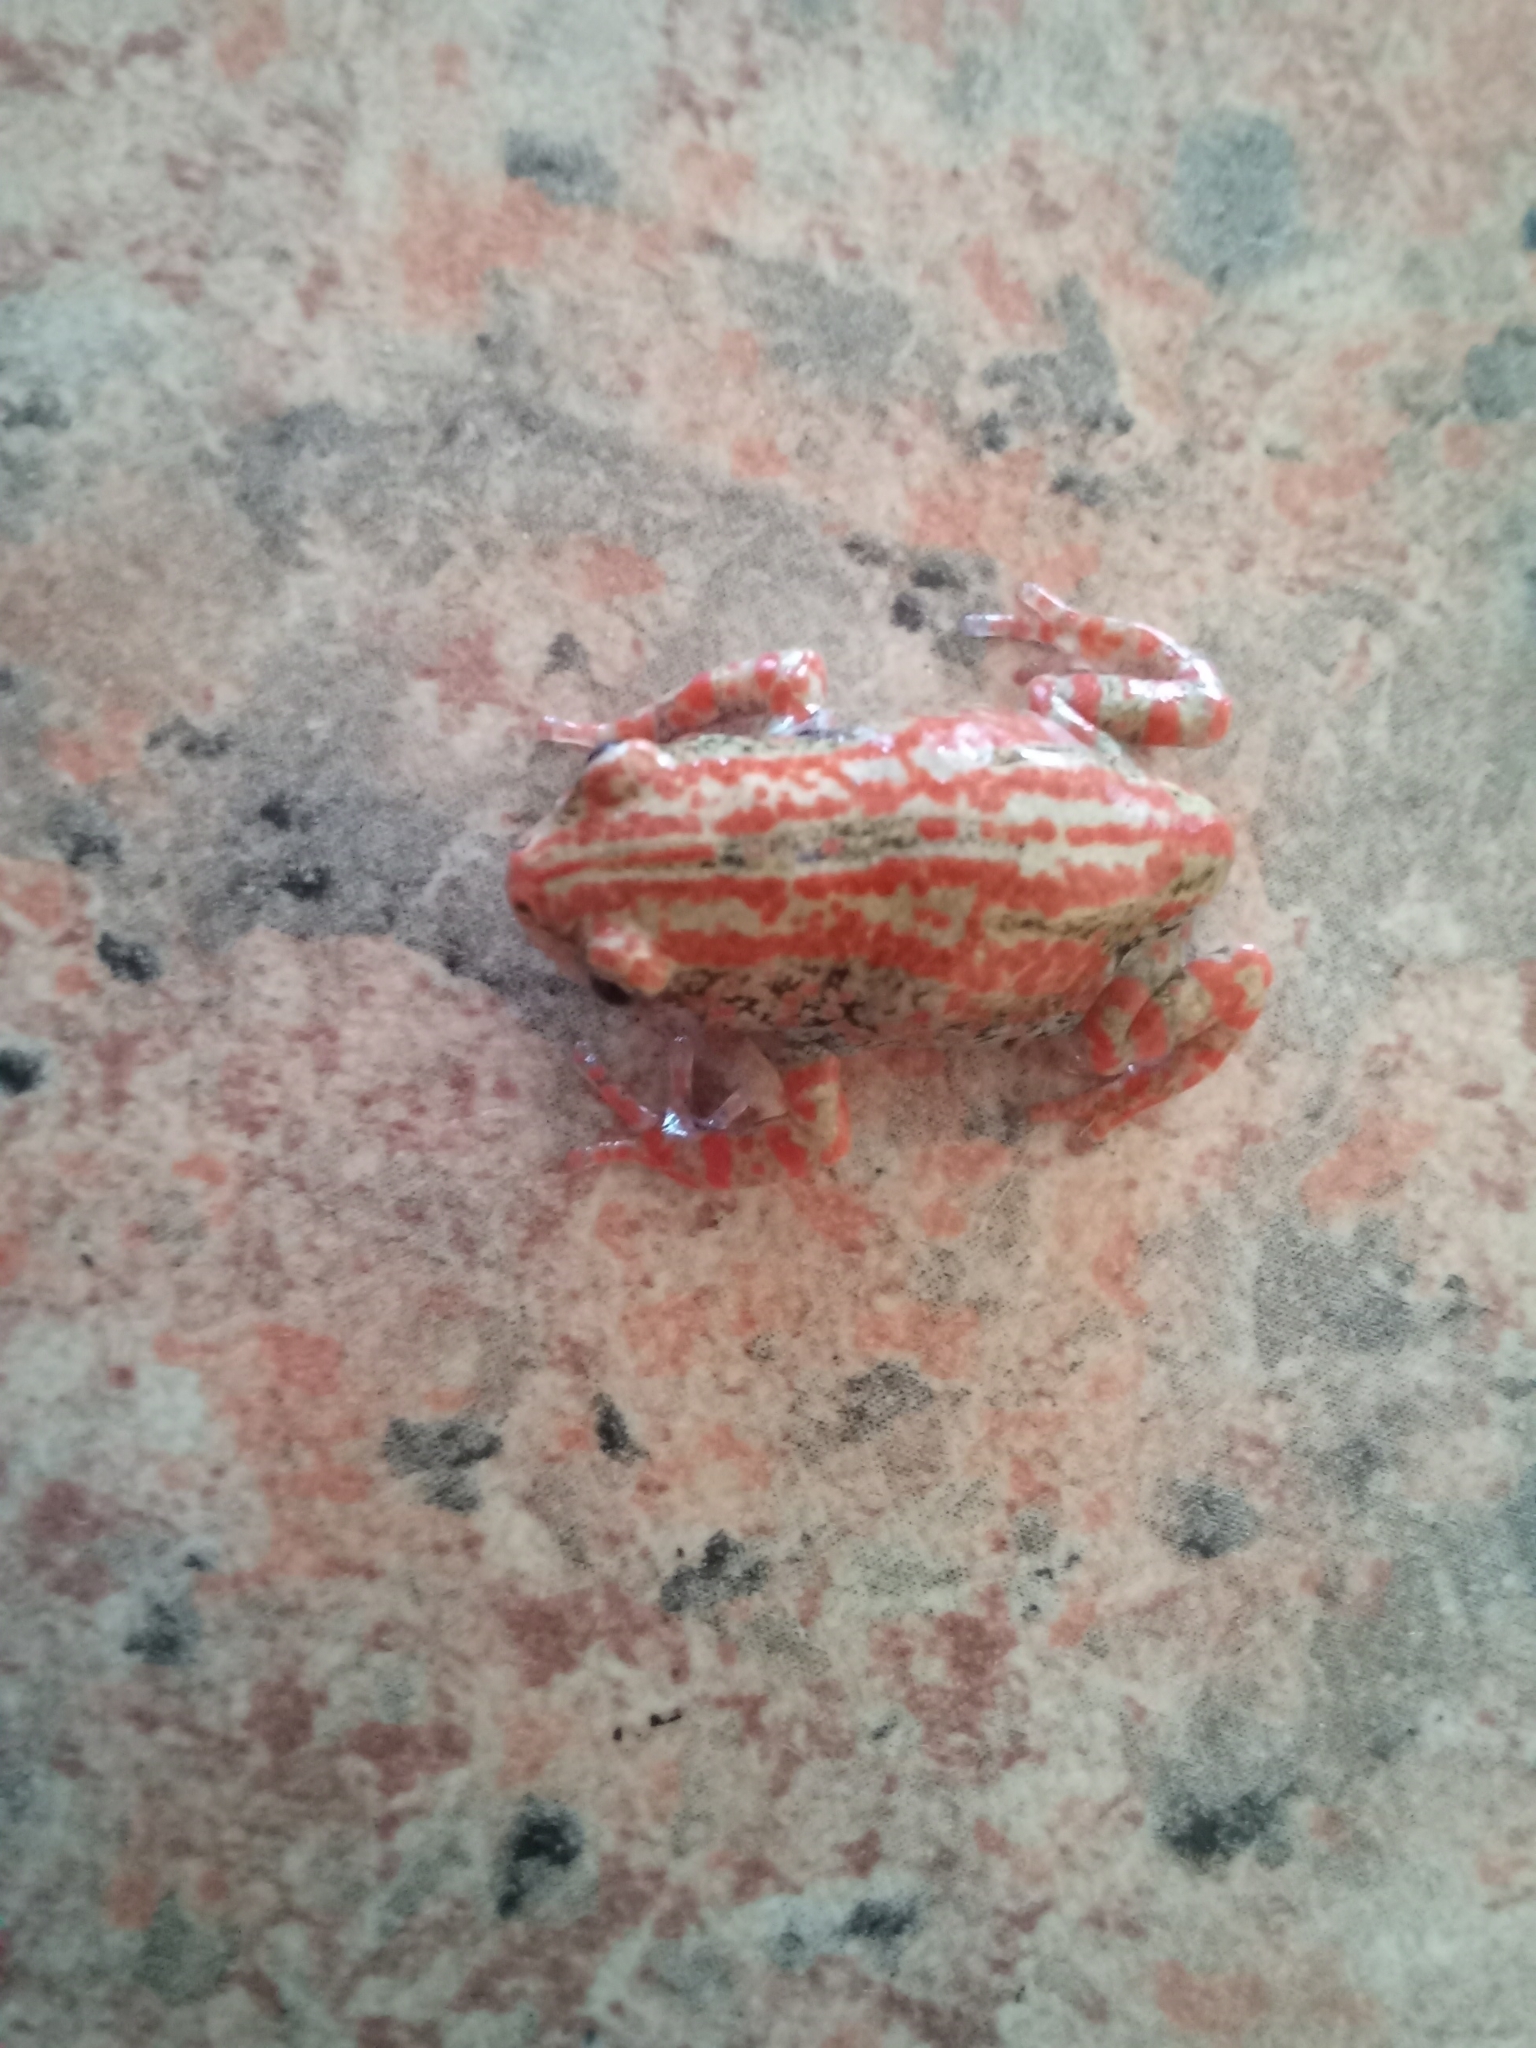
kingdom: Animalia
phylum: Chordata
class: Amphibia
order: Anura
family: Microhylidae
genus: Phrynomantis
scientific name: Phrynomantis bifasciatus
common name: Banded rubber frog
